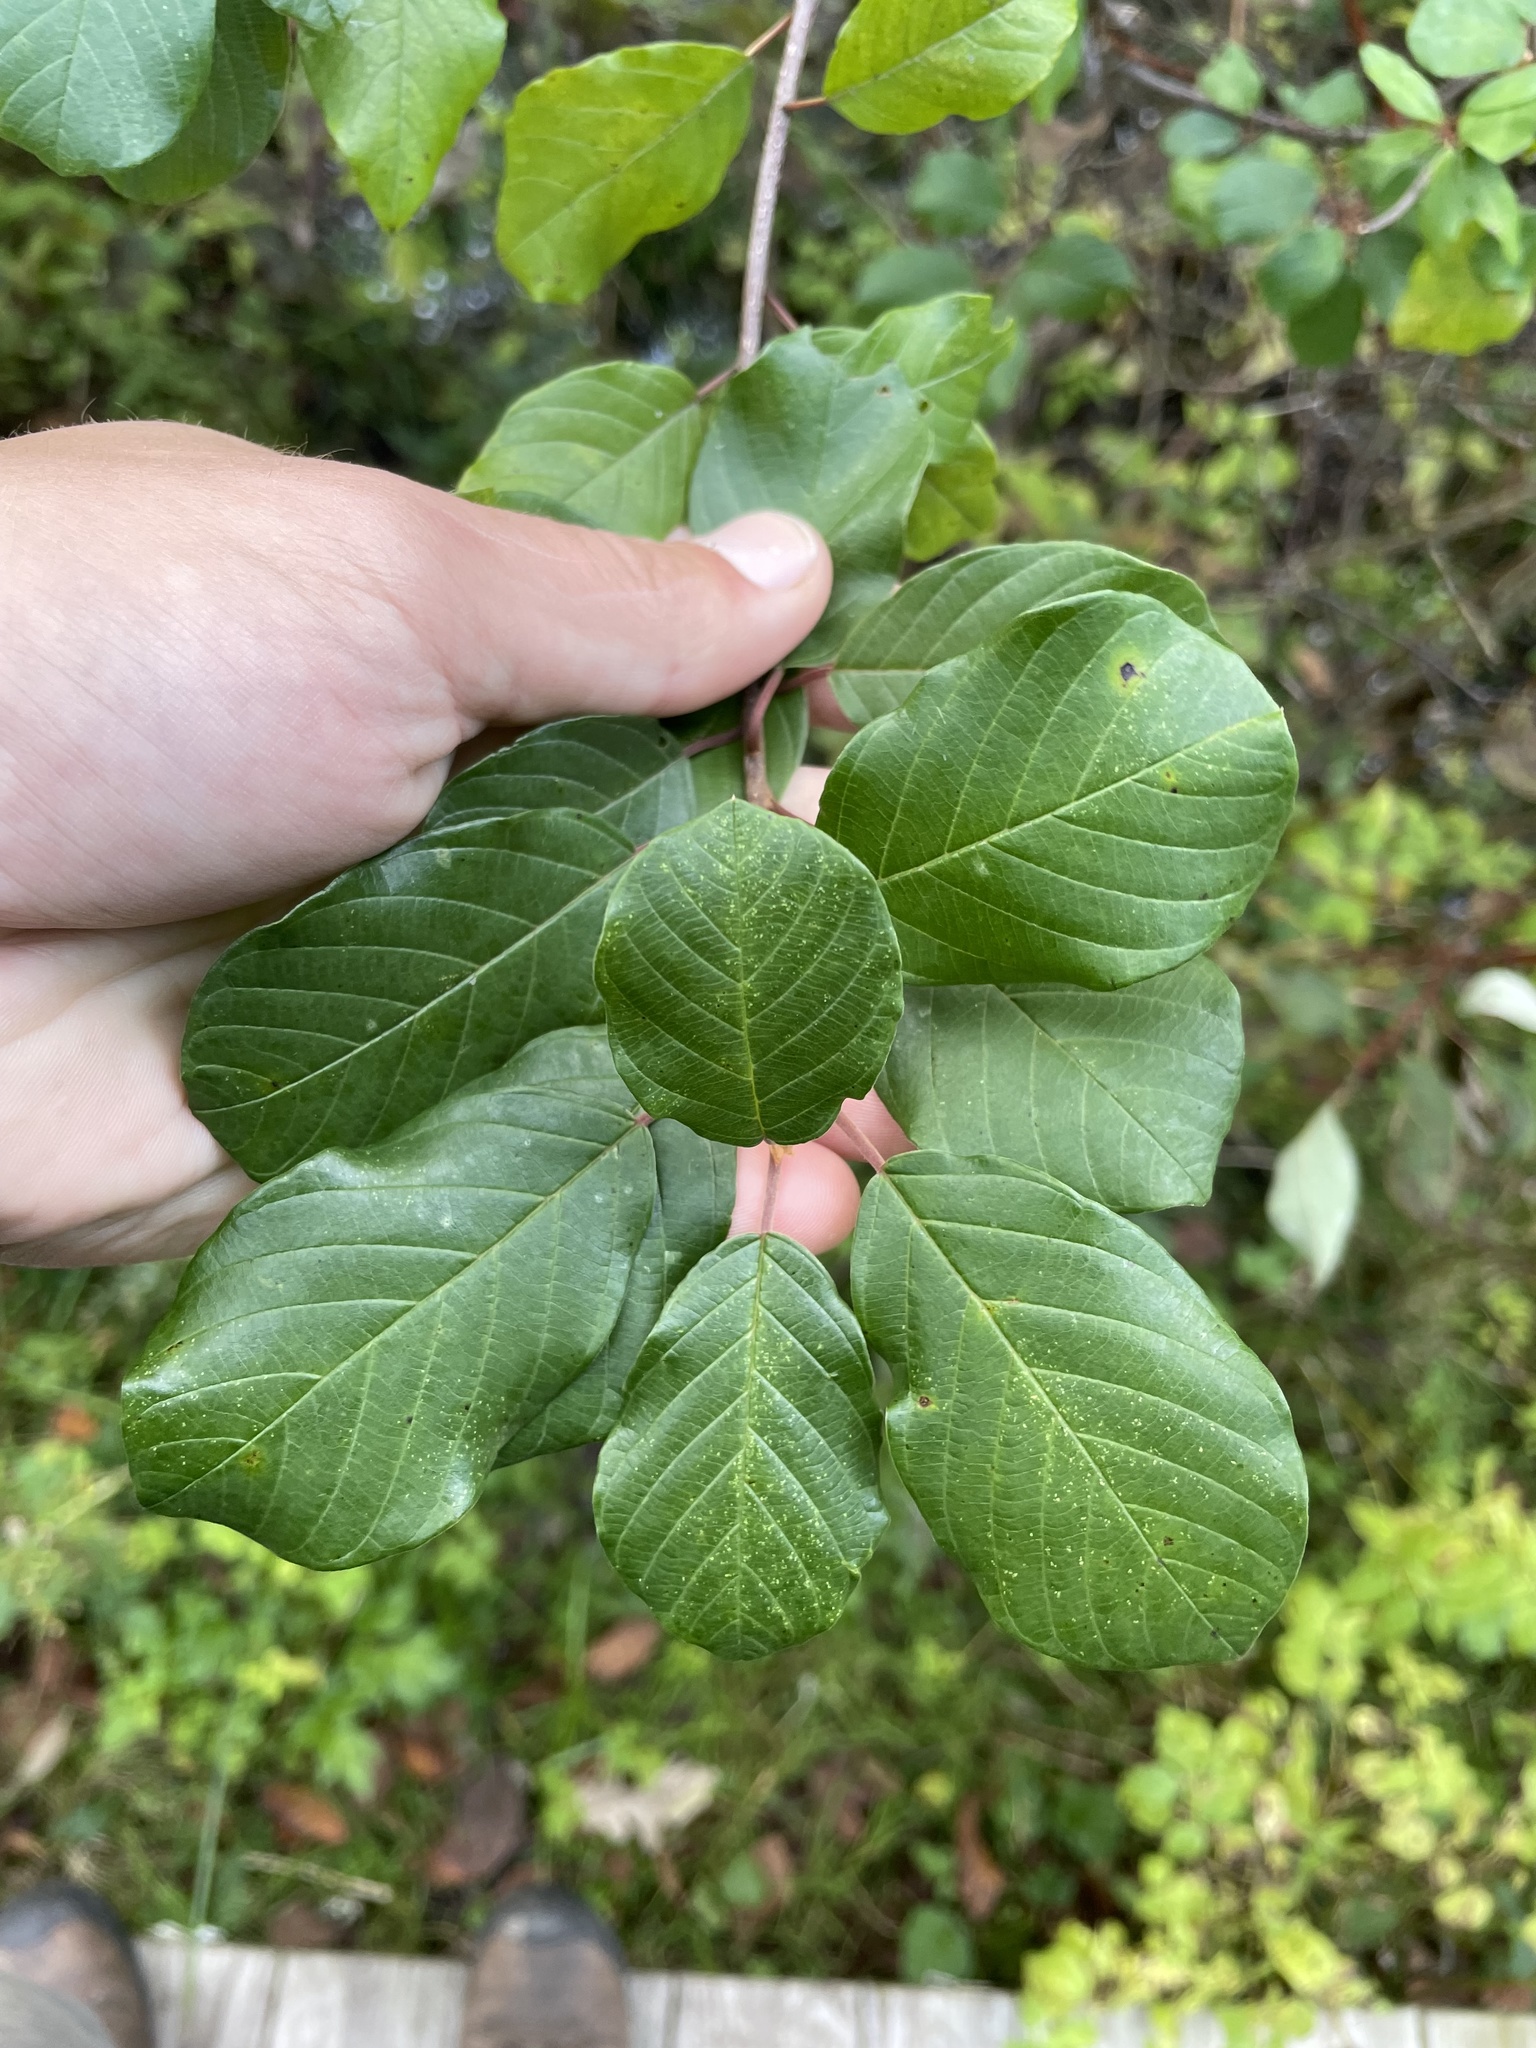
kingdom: Plantae
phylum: Tracheophyta
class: Magnoliopsida
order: Rosales
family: Rhamnaceae
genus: Frangula
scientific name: Frangula alnus
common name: Alder buckthorn
